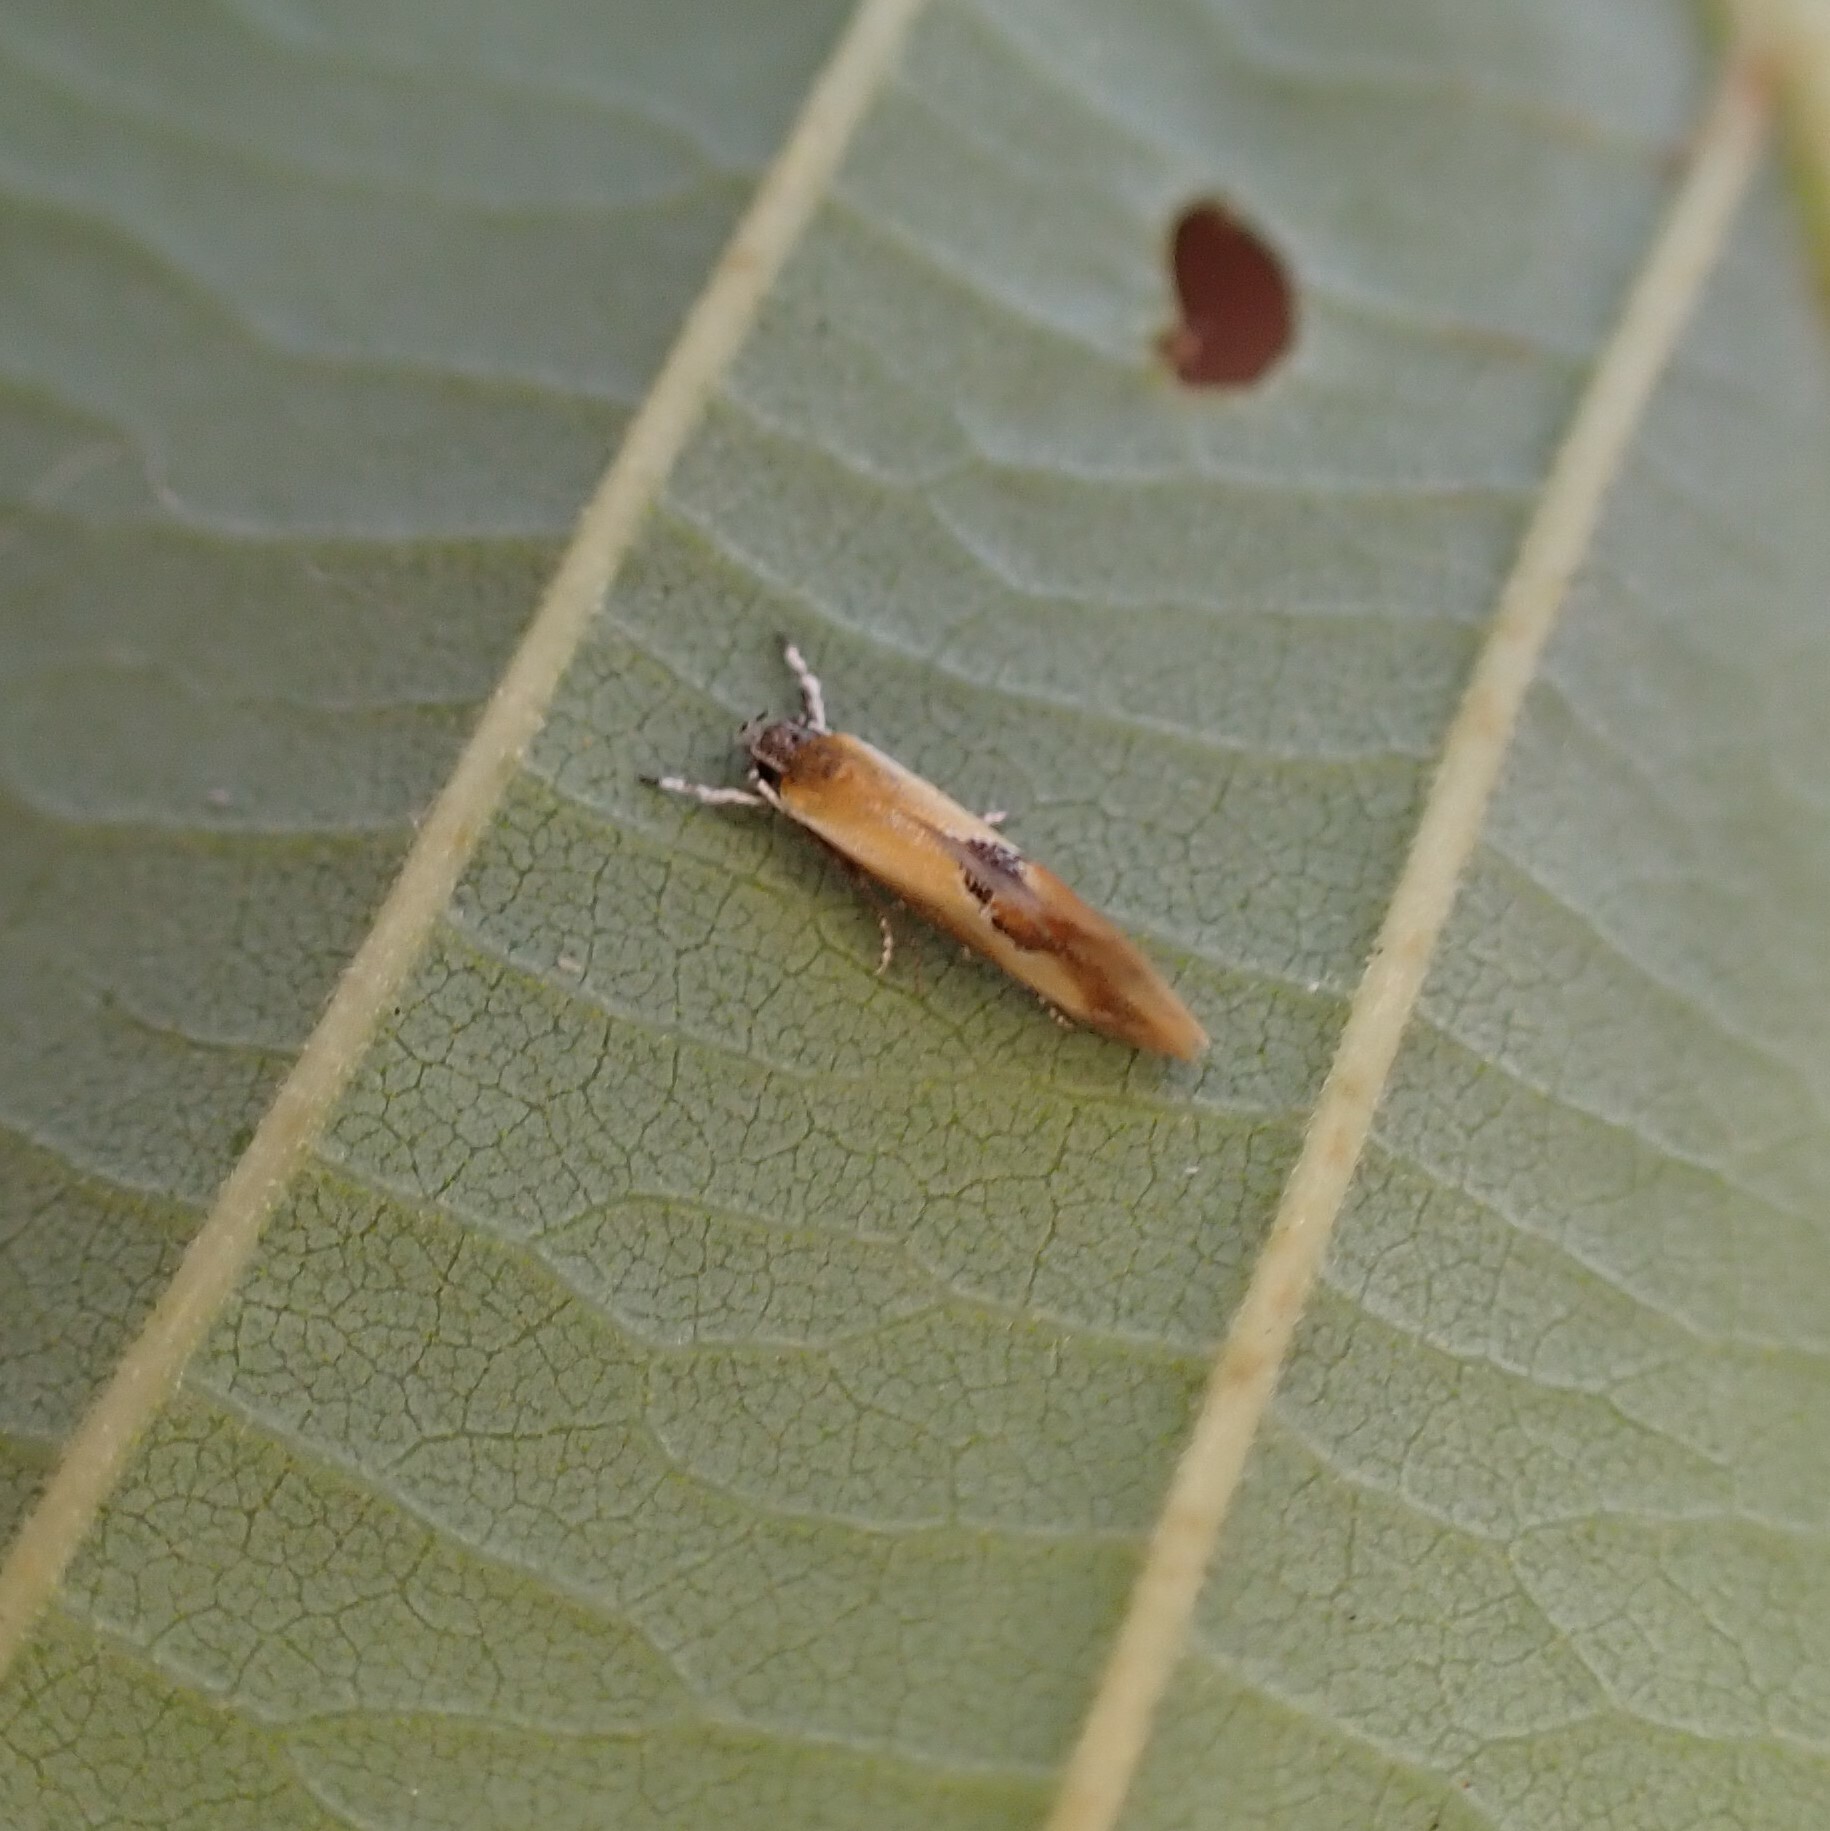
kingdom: Animalia
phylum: Arthropoda
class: Insecta
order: Lepidoptera
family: Oecophoridae
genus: Batia
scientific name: Batia lunaris
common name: Moth
